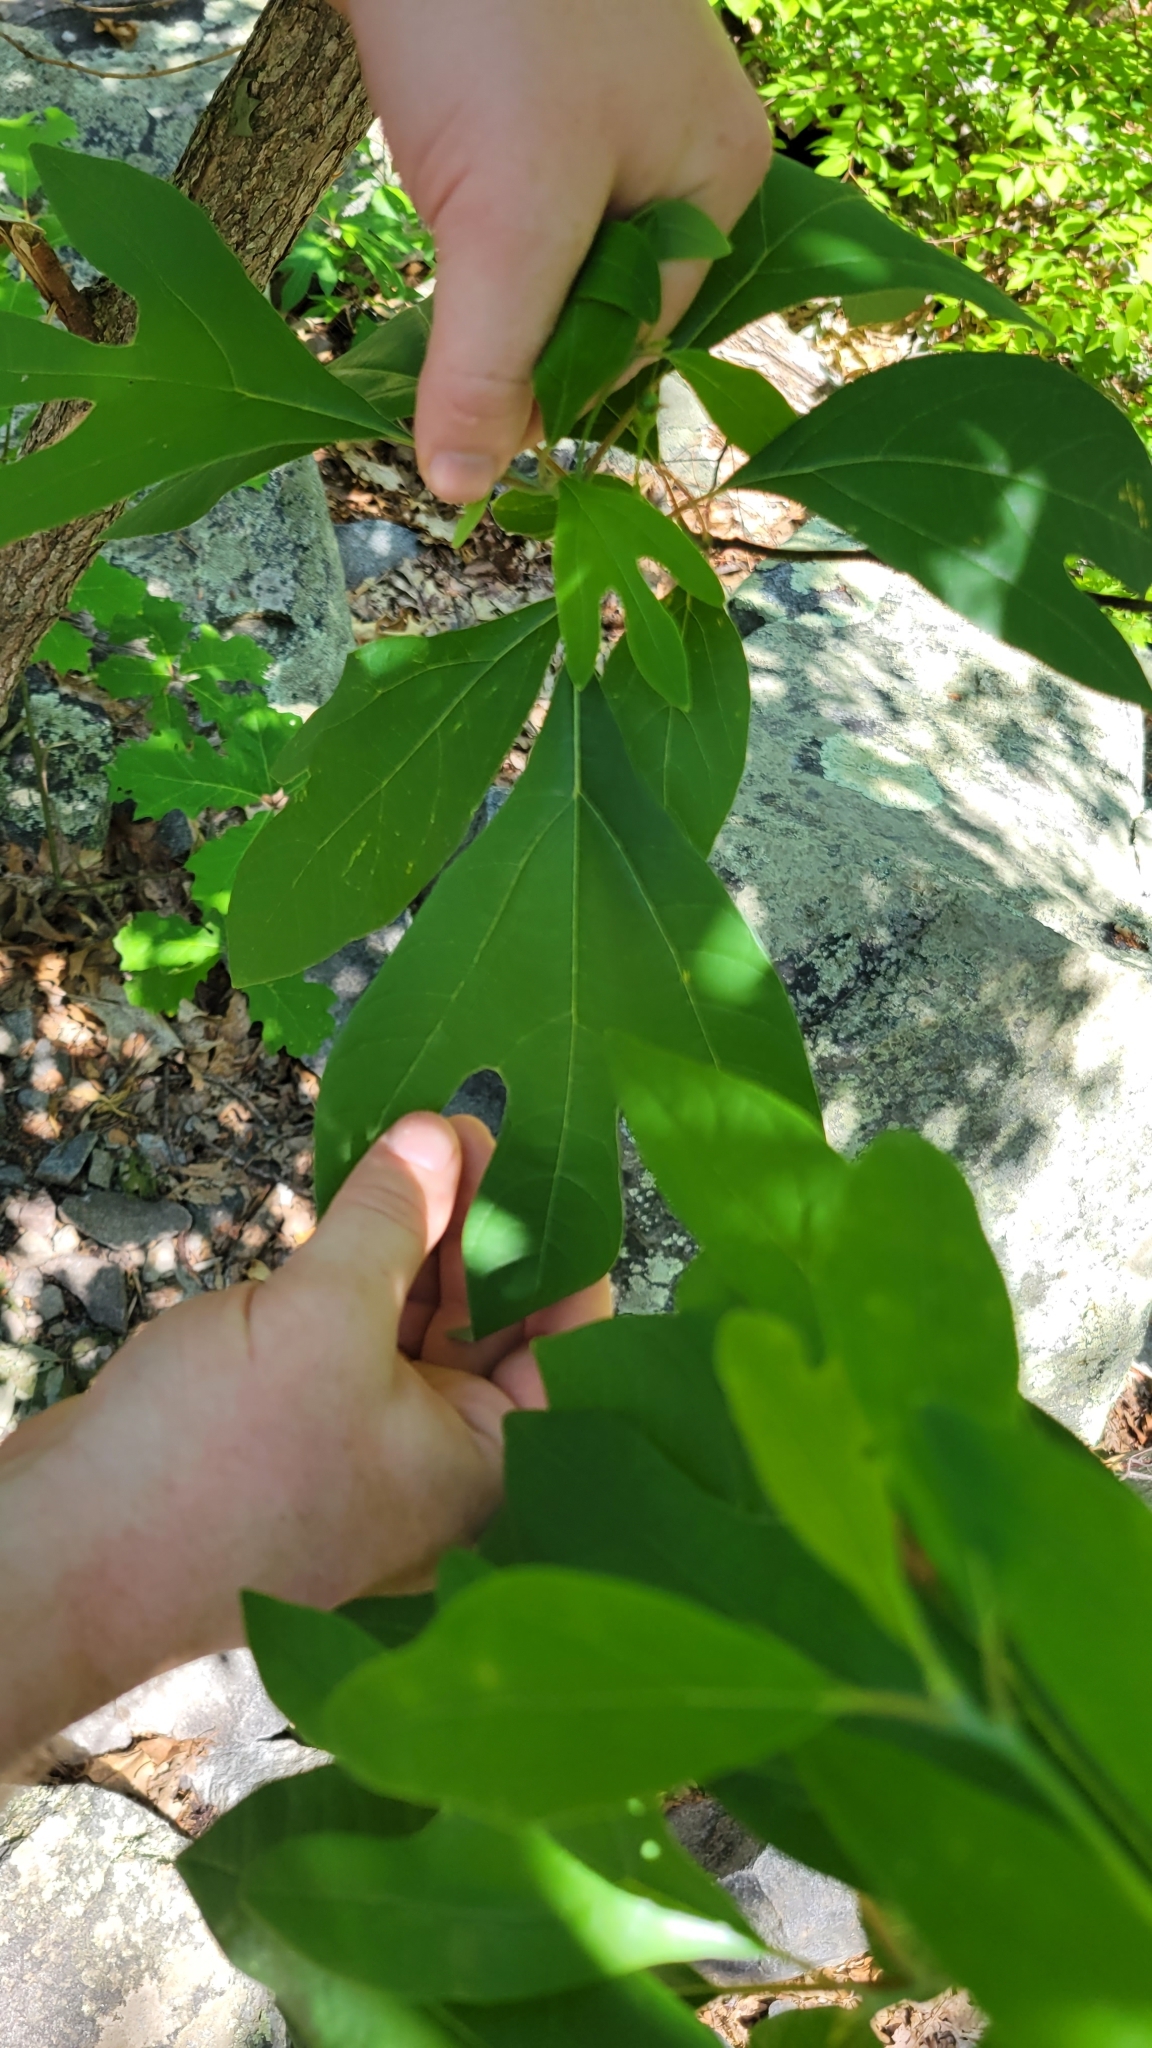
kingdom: Plantae
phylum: Tracheophyta
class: Magnoliopsida
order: Laurales
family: Lauraceae
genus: Sassafras
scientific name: Sassafras albidum
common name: Sassafras
